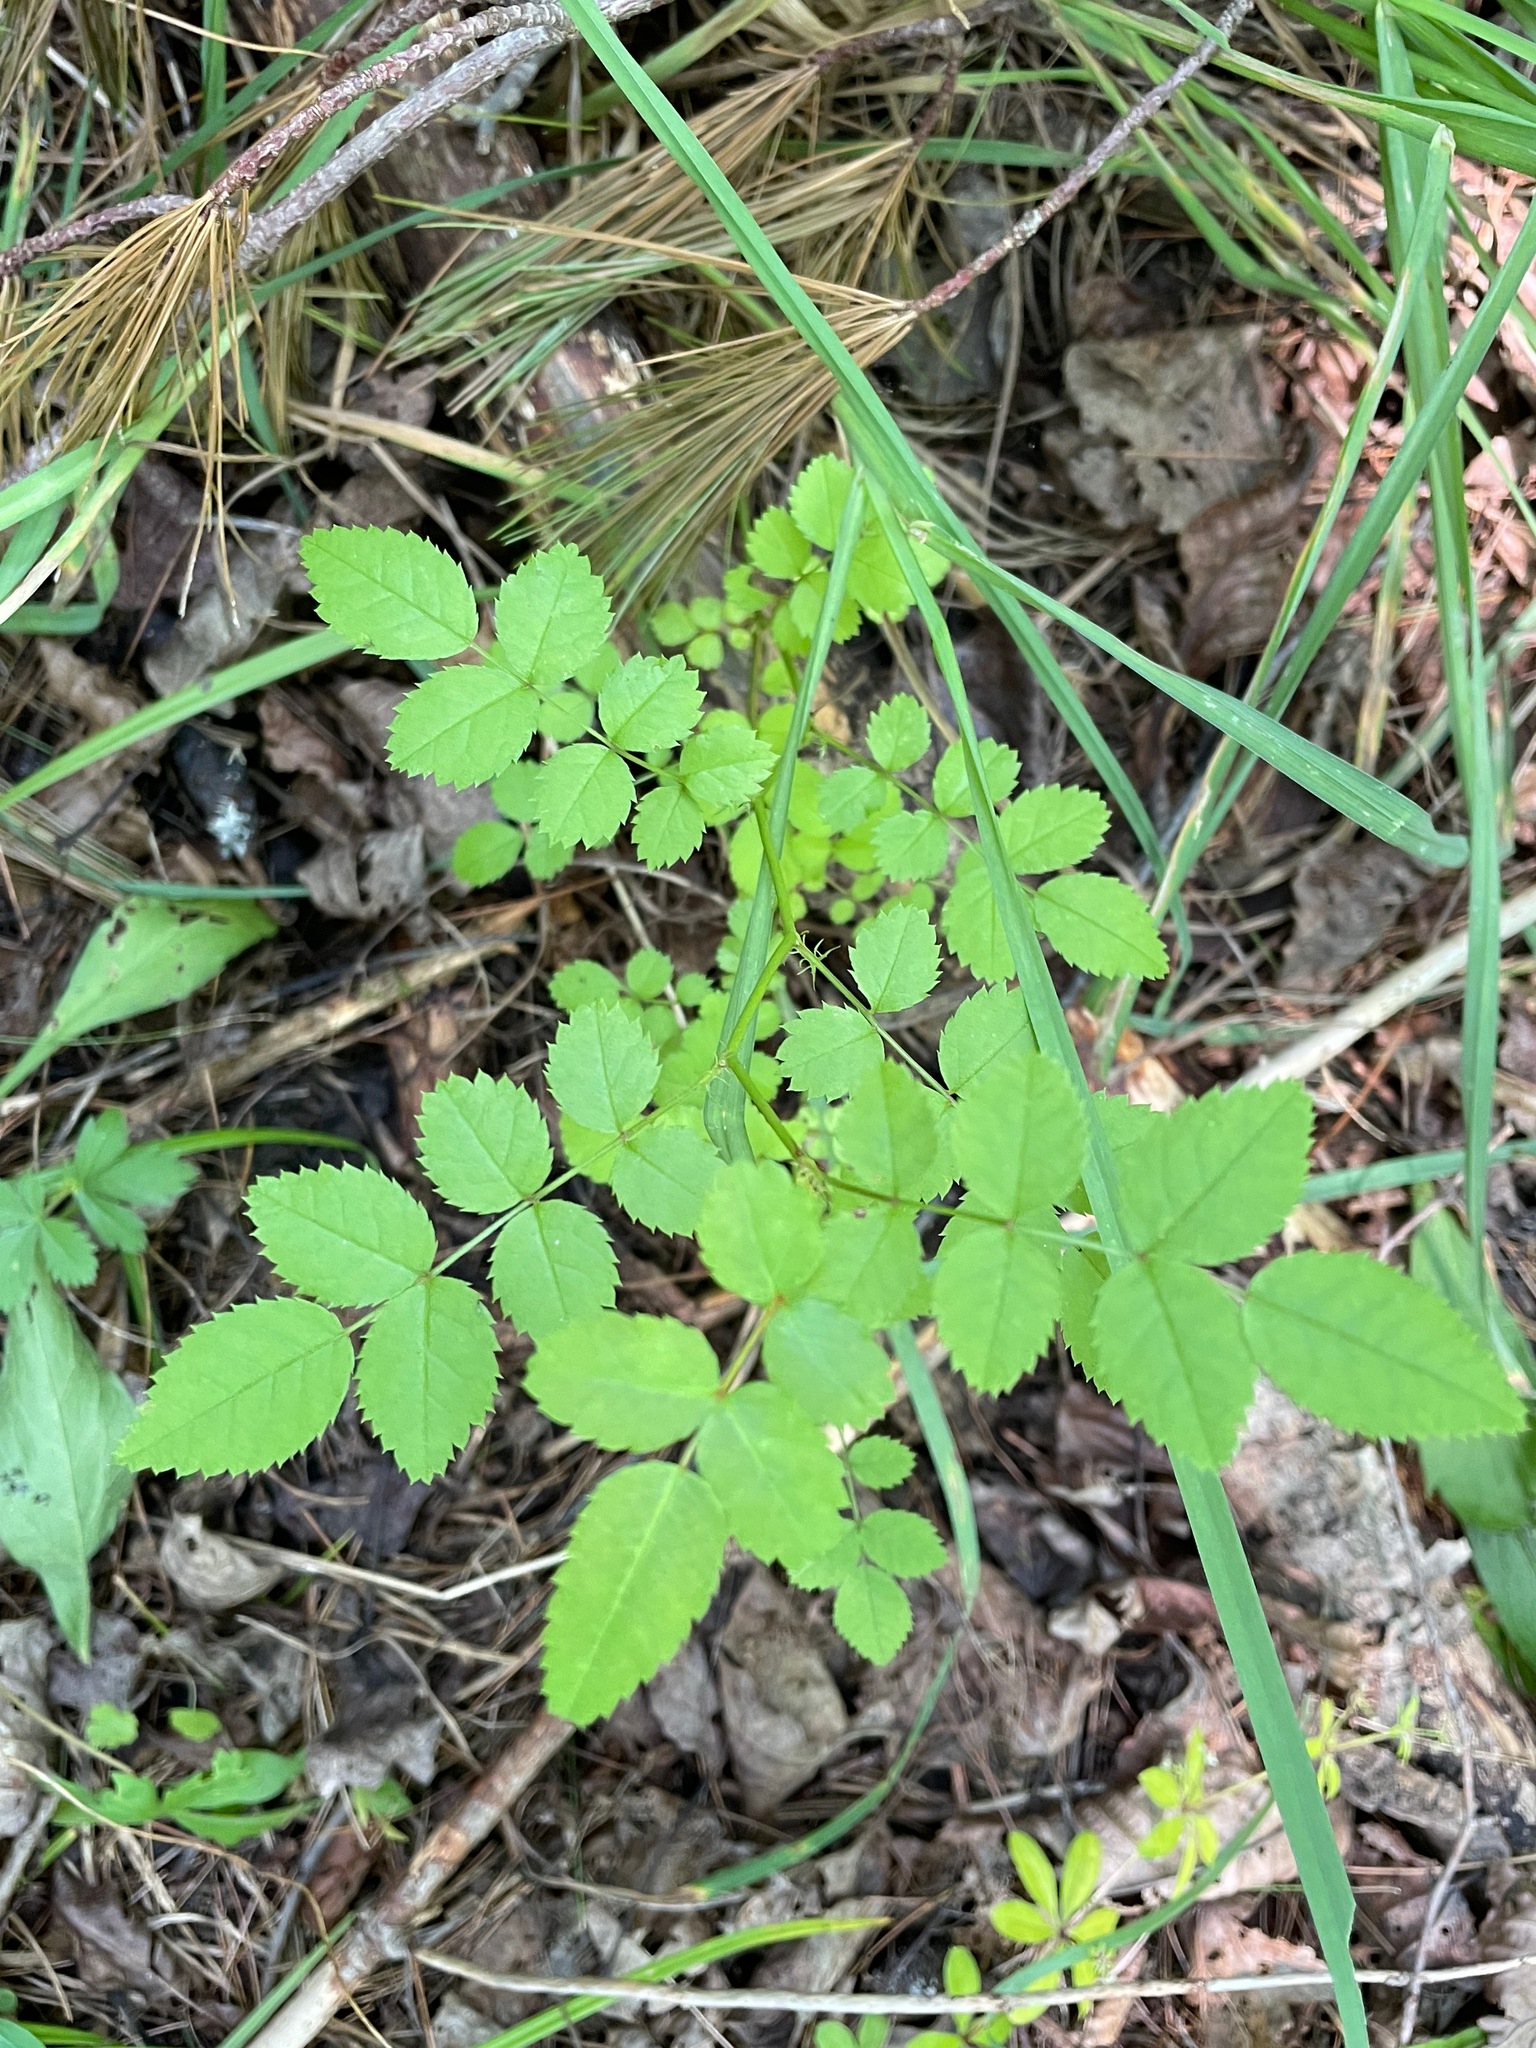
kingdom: Plantae
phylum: Tracheophyta
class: Magnoliopsida
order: Rosales
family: Rosaceae
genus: Rosa
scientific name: Rosa multiflora
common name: Multiflora rose
